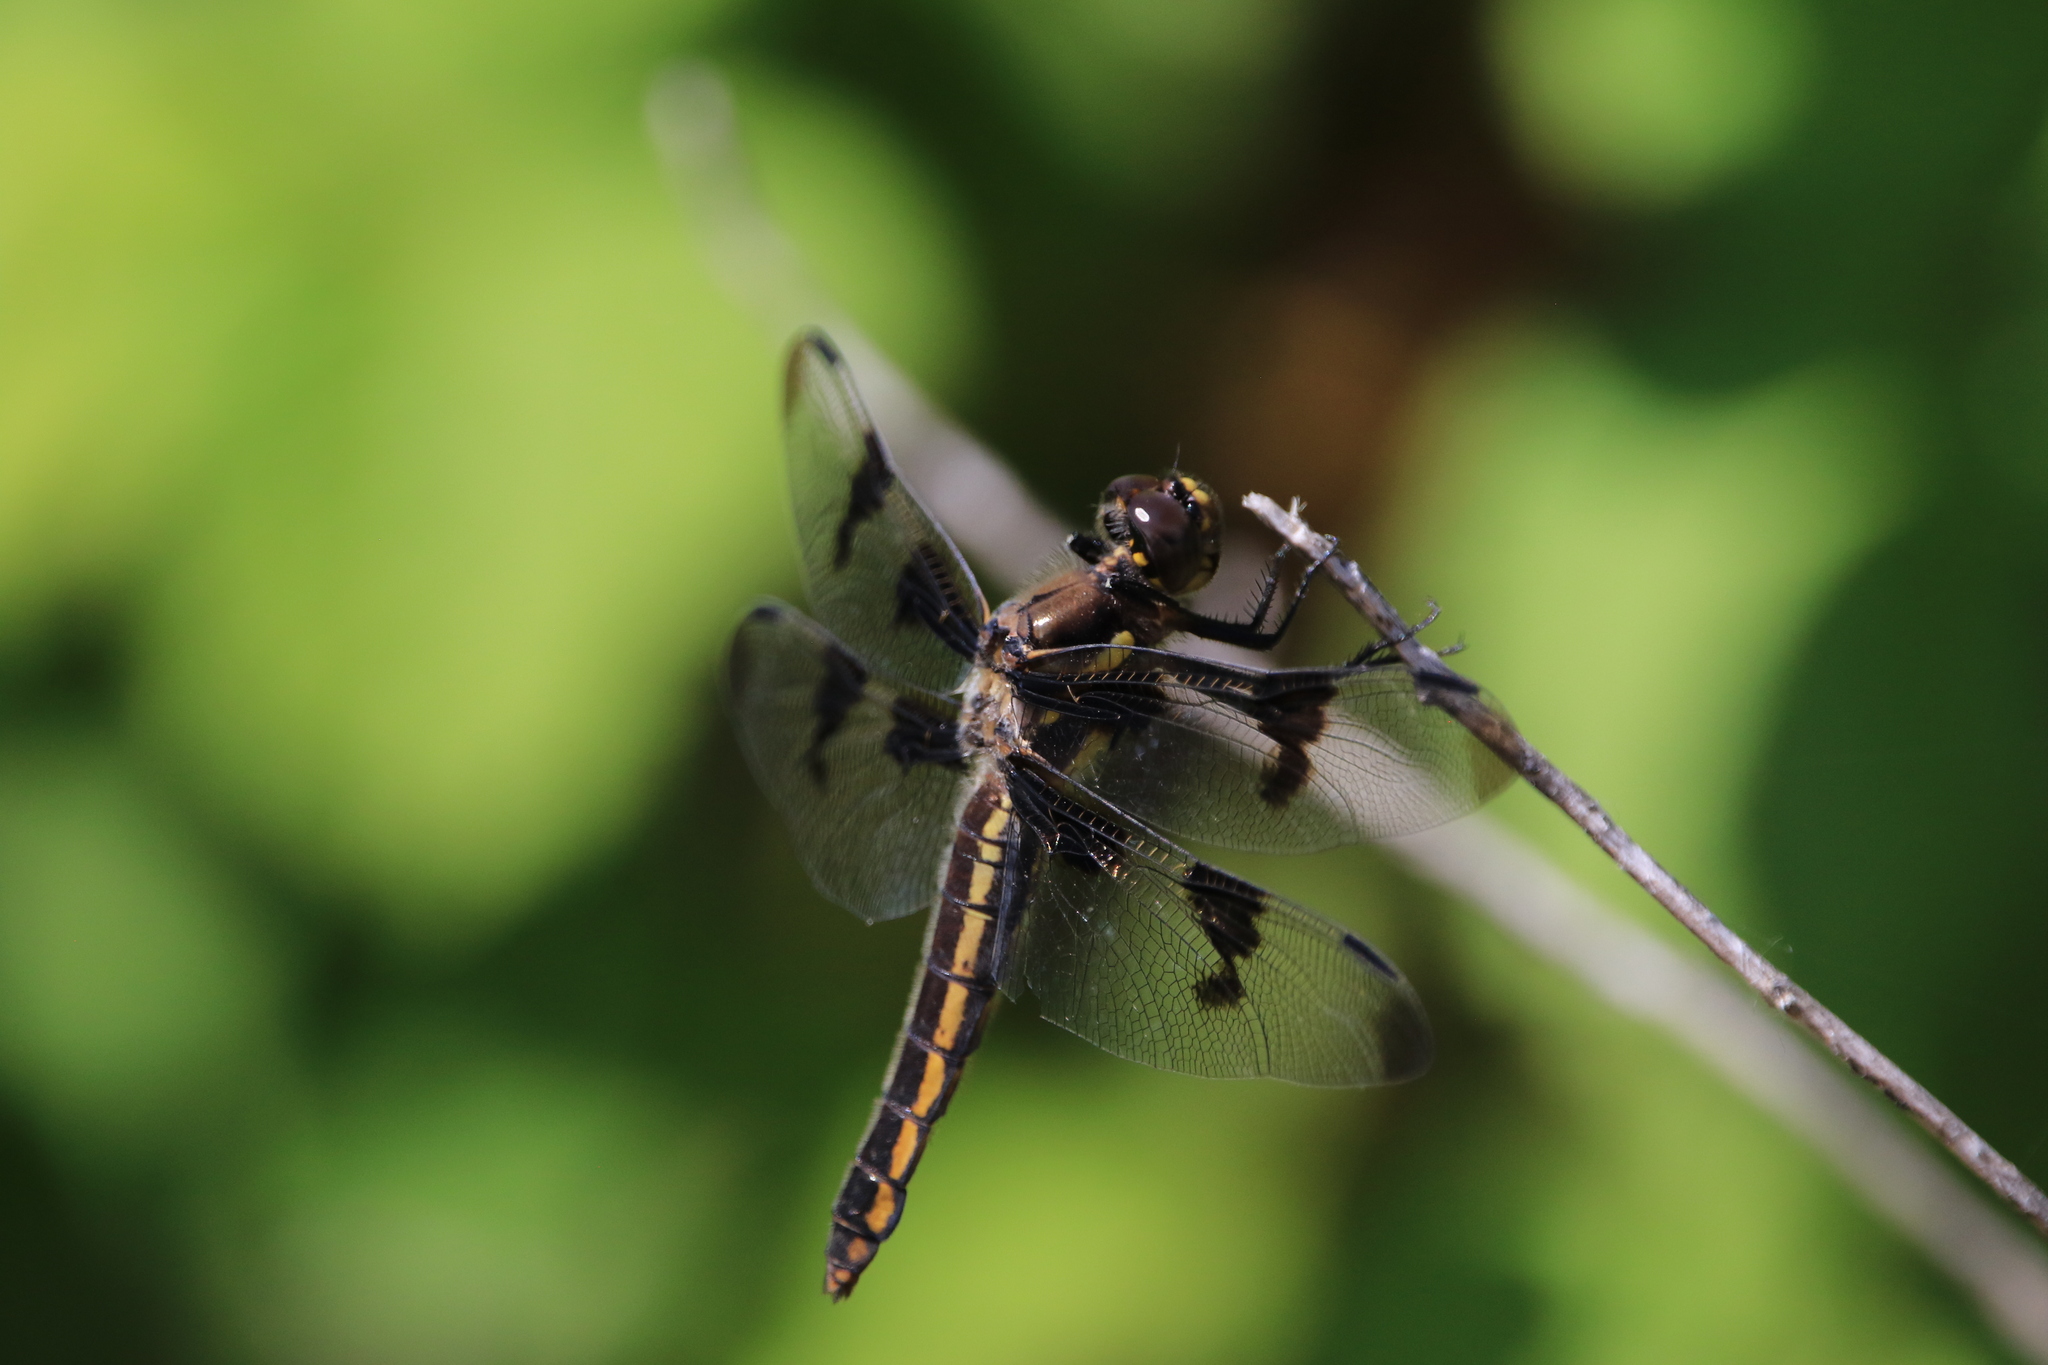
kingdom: Animalia
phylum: Arthropoda
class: Insecta
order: Odonata
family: Libellulidae
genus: Libellula
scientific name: Libellula
